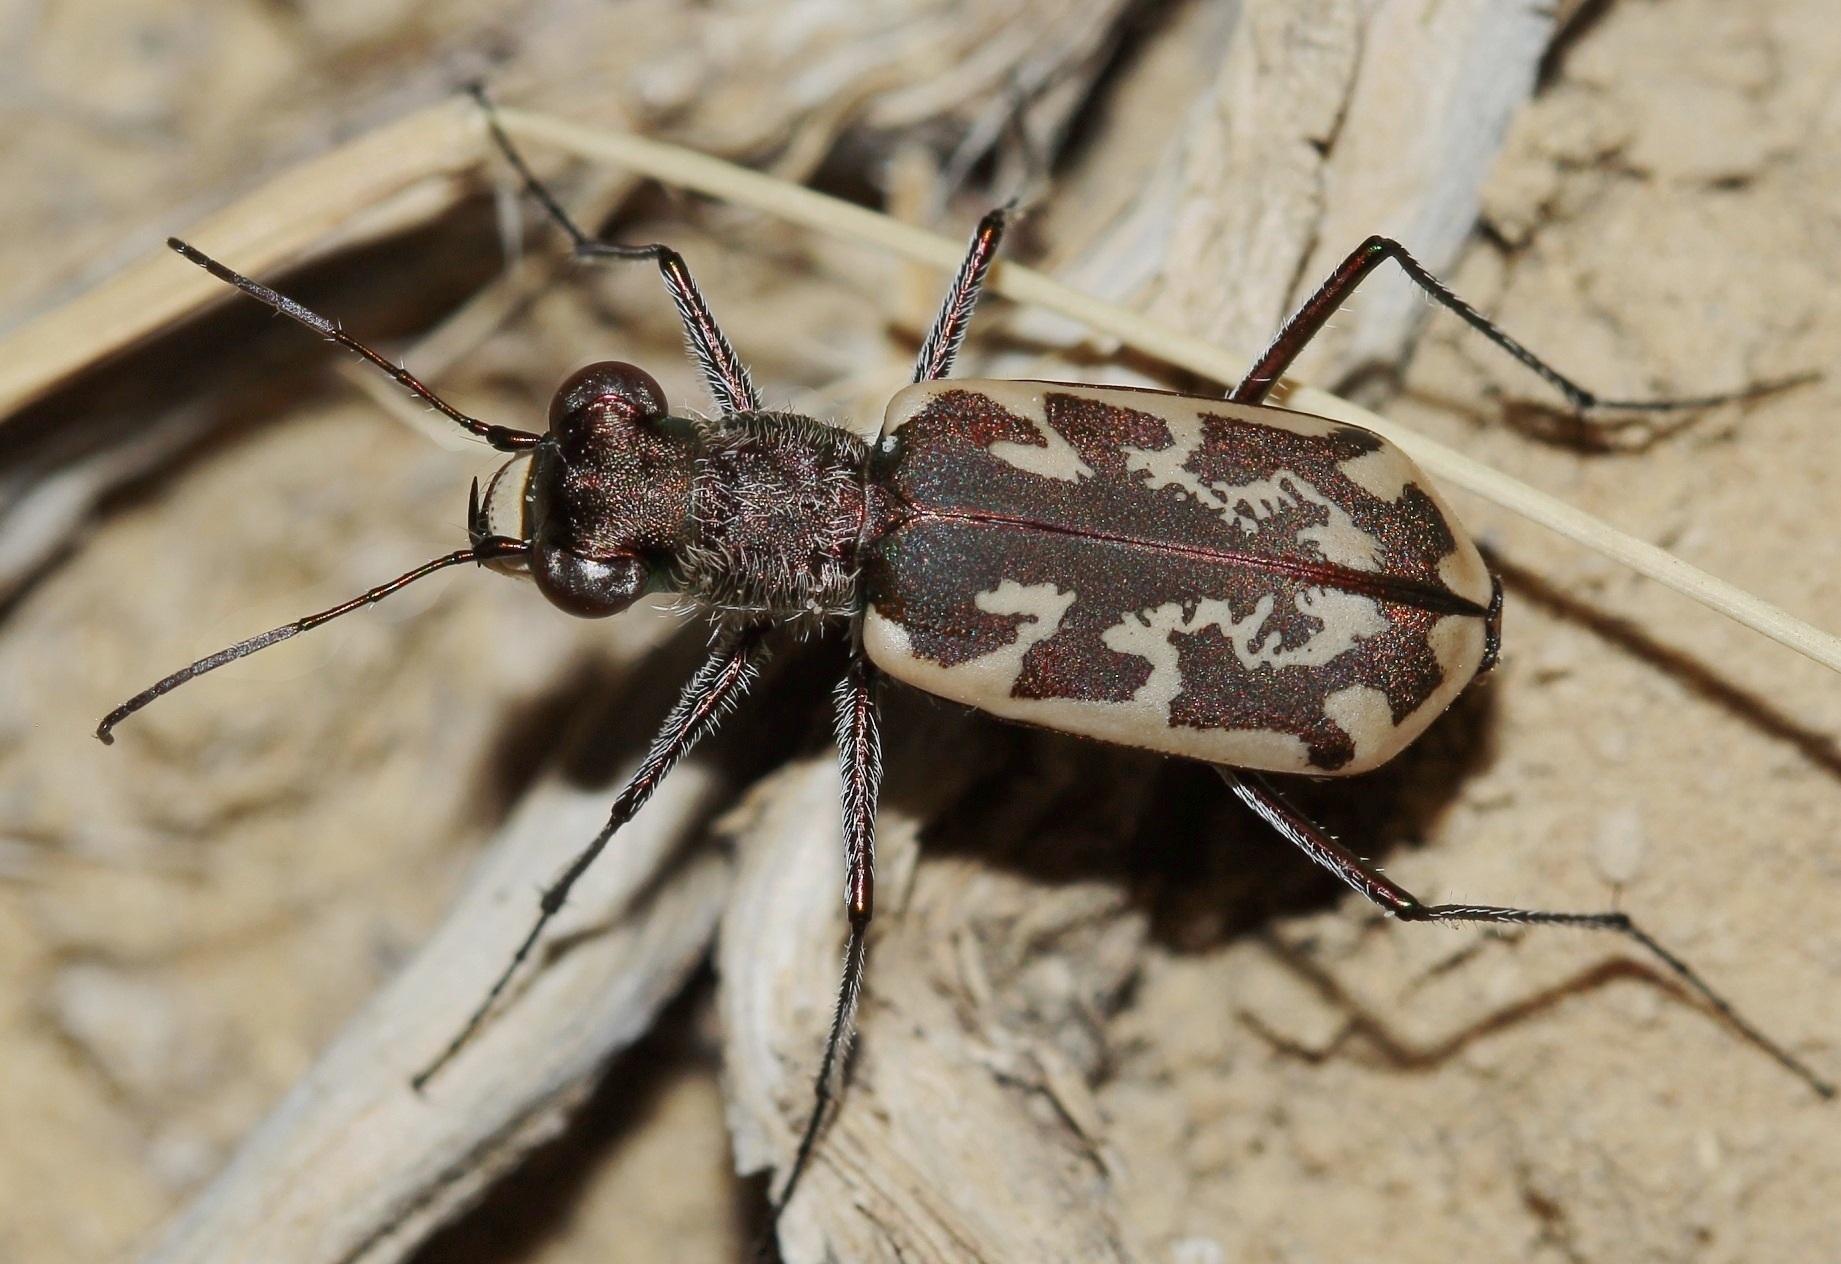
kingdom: Animalia
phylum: Arthropoda
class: Insecta
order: Coleoptera
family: Carabidae
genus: Cylindera
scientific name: Cylindera inscripta
